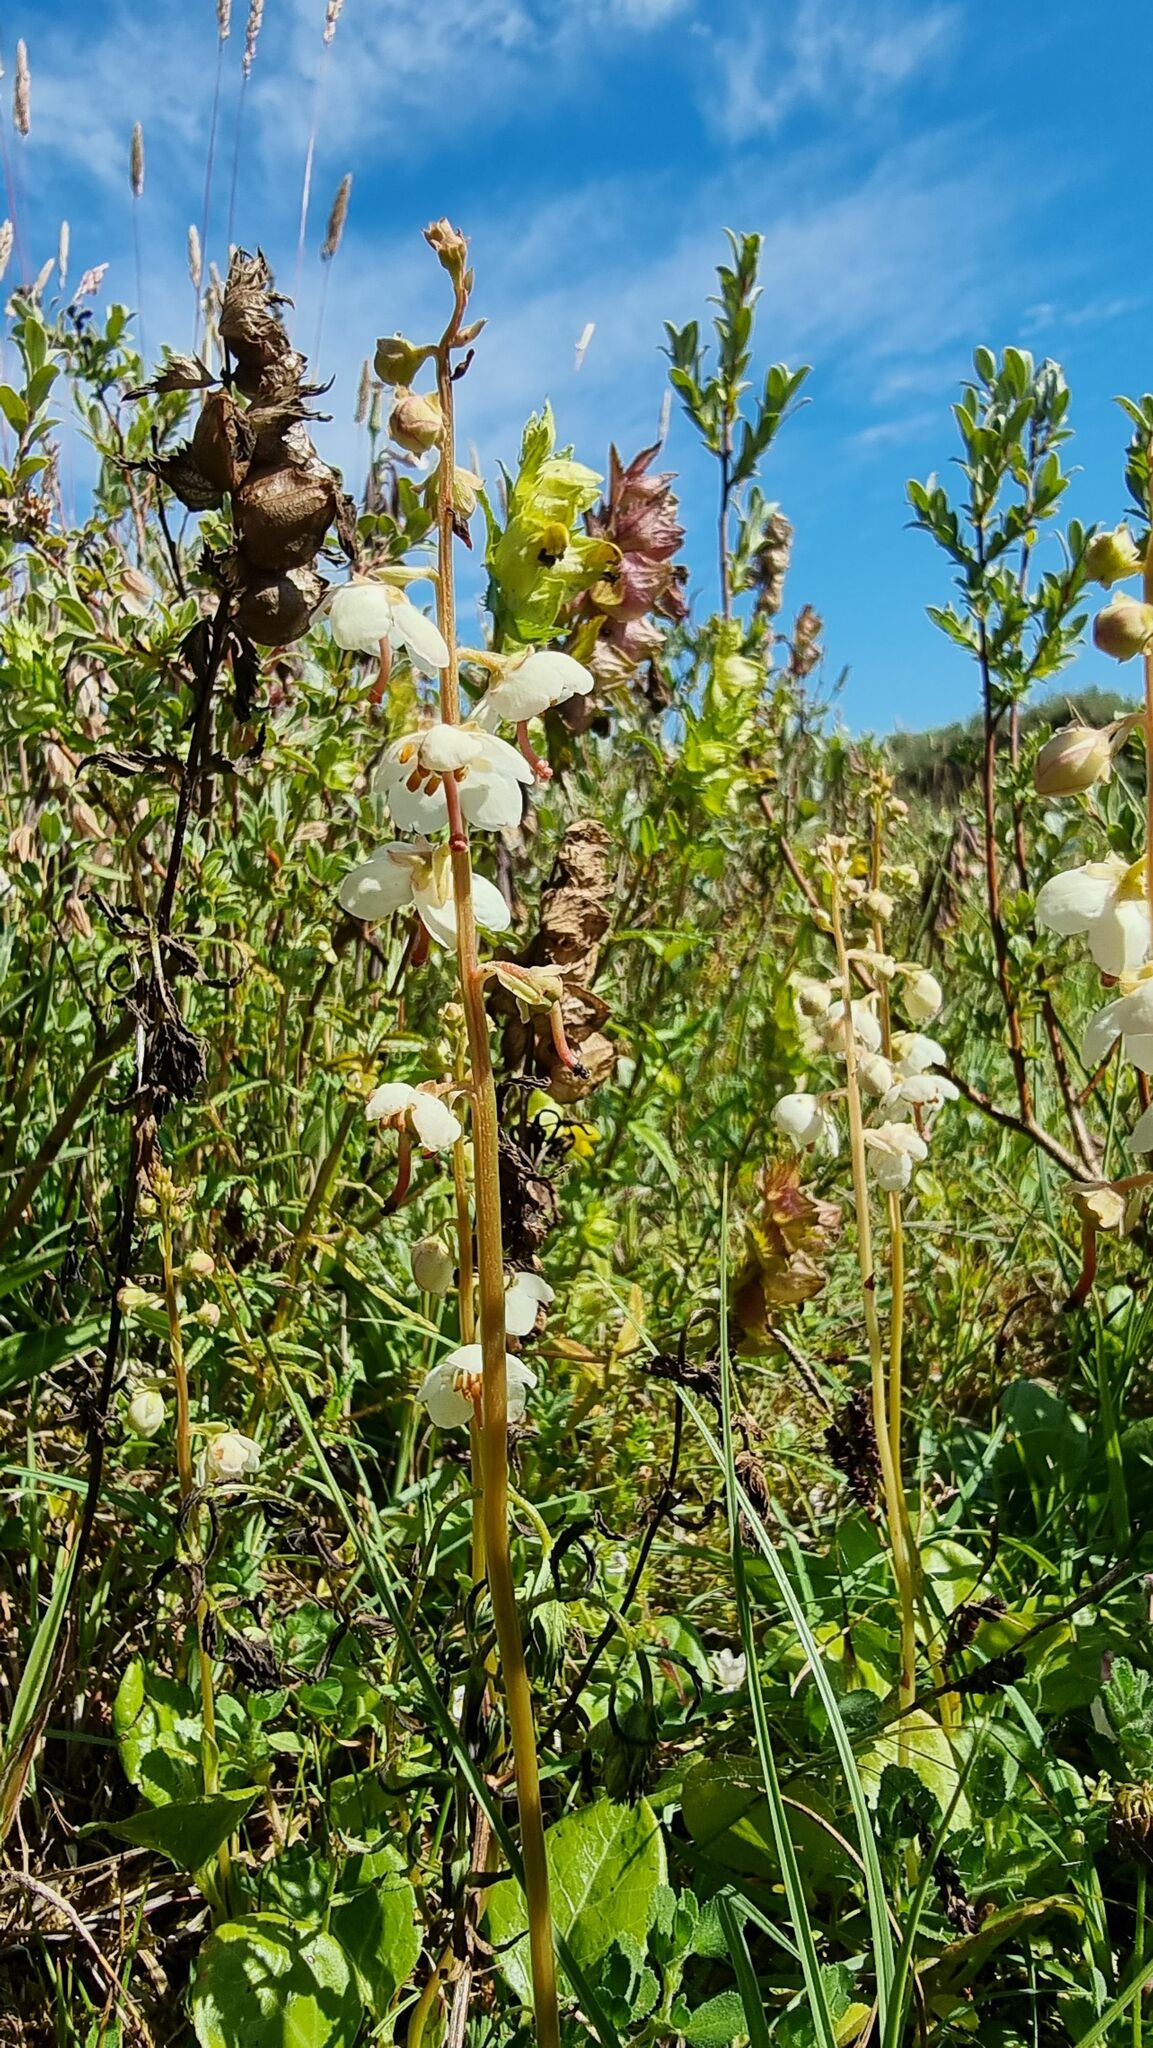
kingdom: Plantae
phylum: Tracheophyta
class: Magnoliopsida
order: Ericales
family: Ericaceae
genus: Pyrola
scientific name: Pyrola rotundifolia
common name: Round-leaved wintergreen
